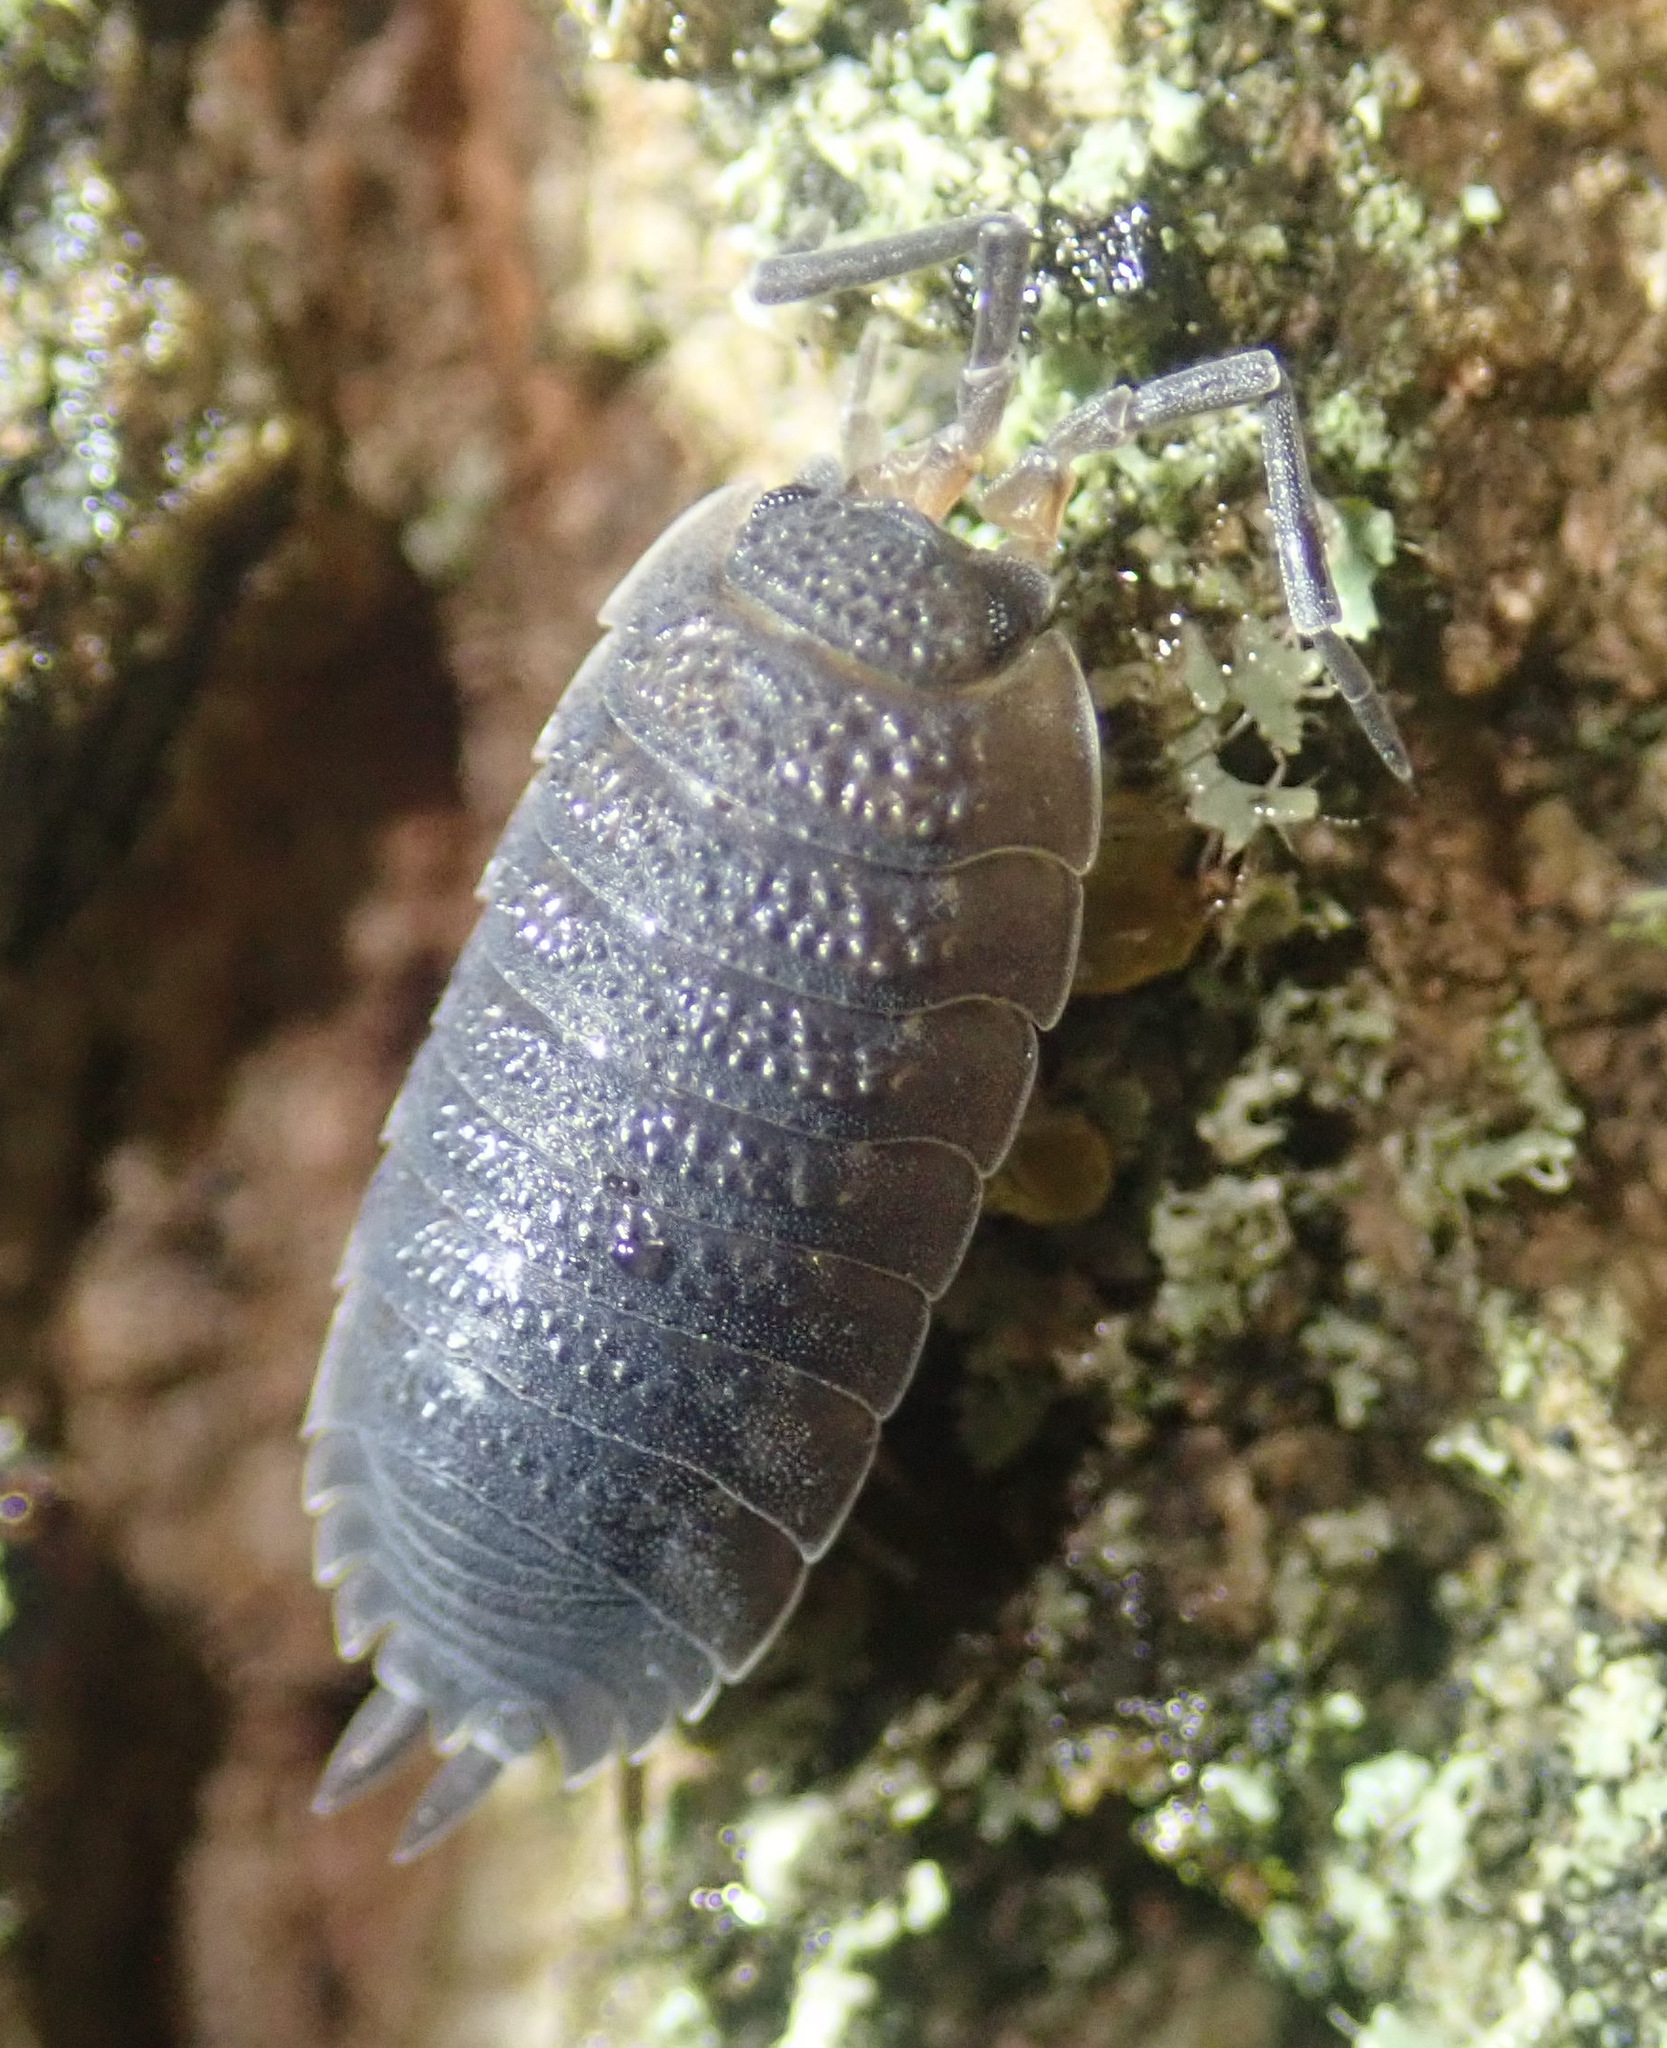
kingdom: Animalia
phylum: Arthropoda
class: Malacostraca
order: Isopoda
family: Porcellionidae
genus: Porcellio
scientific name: Porcellio scaber
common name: Common rough woodlouse
